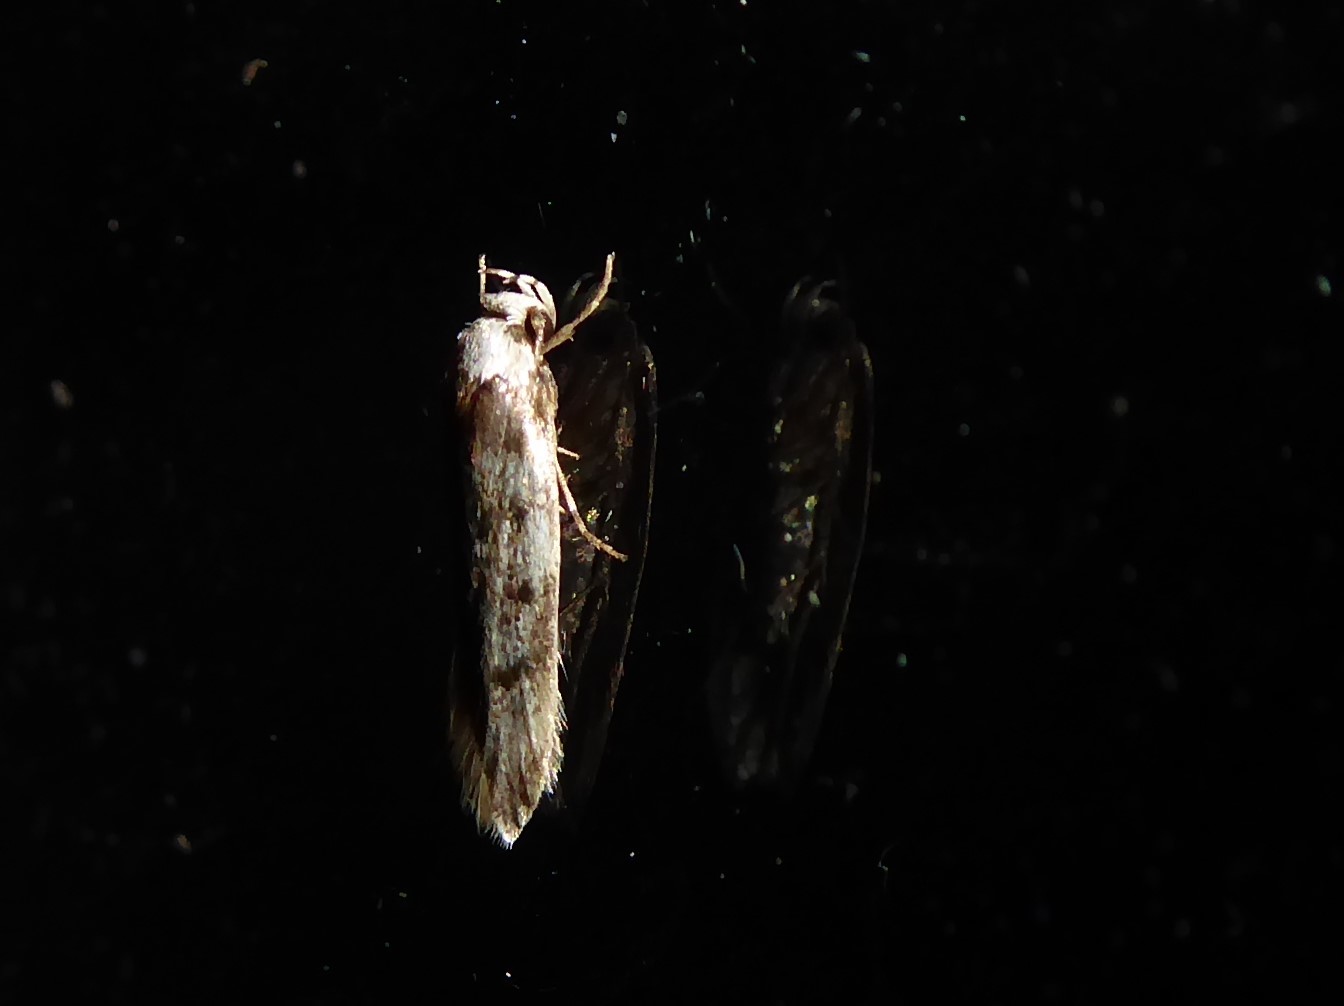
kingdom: Animalia
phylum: Arthropoda
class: Insecta
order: Lepidoptera
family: Oecophoridae
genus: Endrosis
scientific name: Endrosis sarcitrella
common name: White-shouldered house moth
